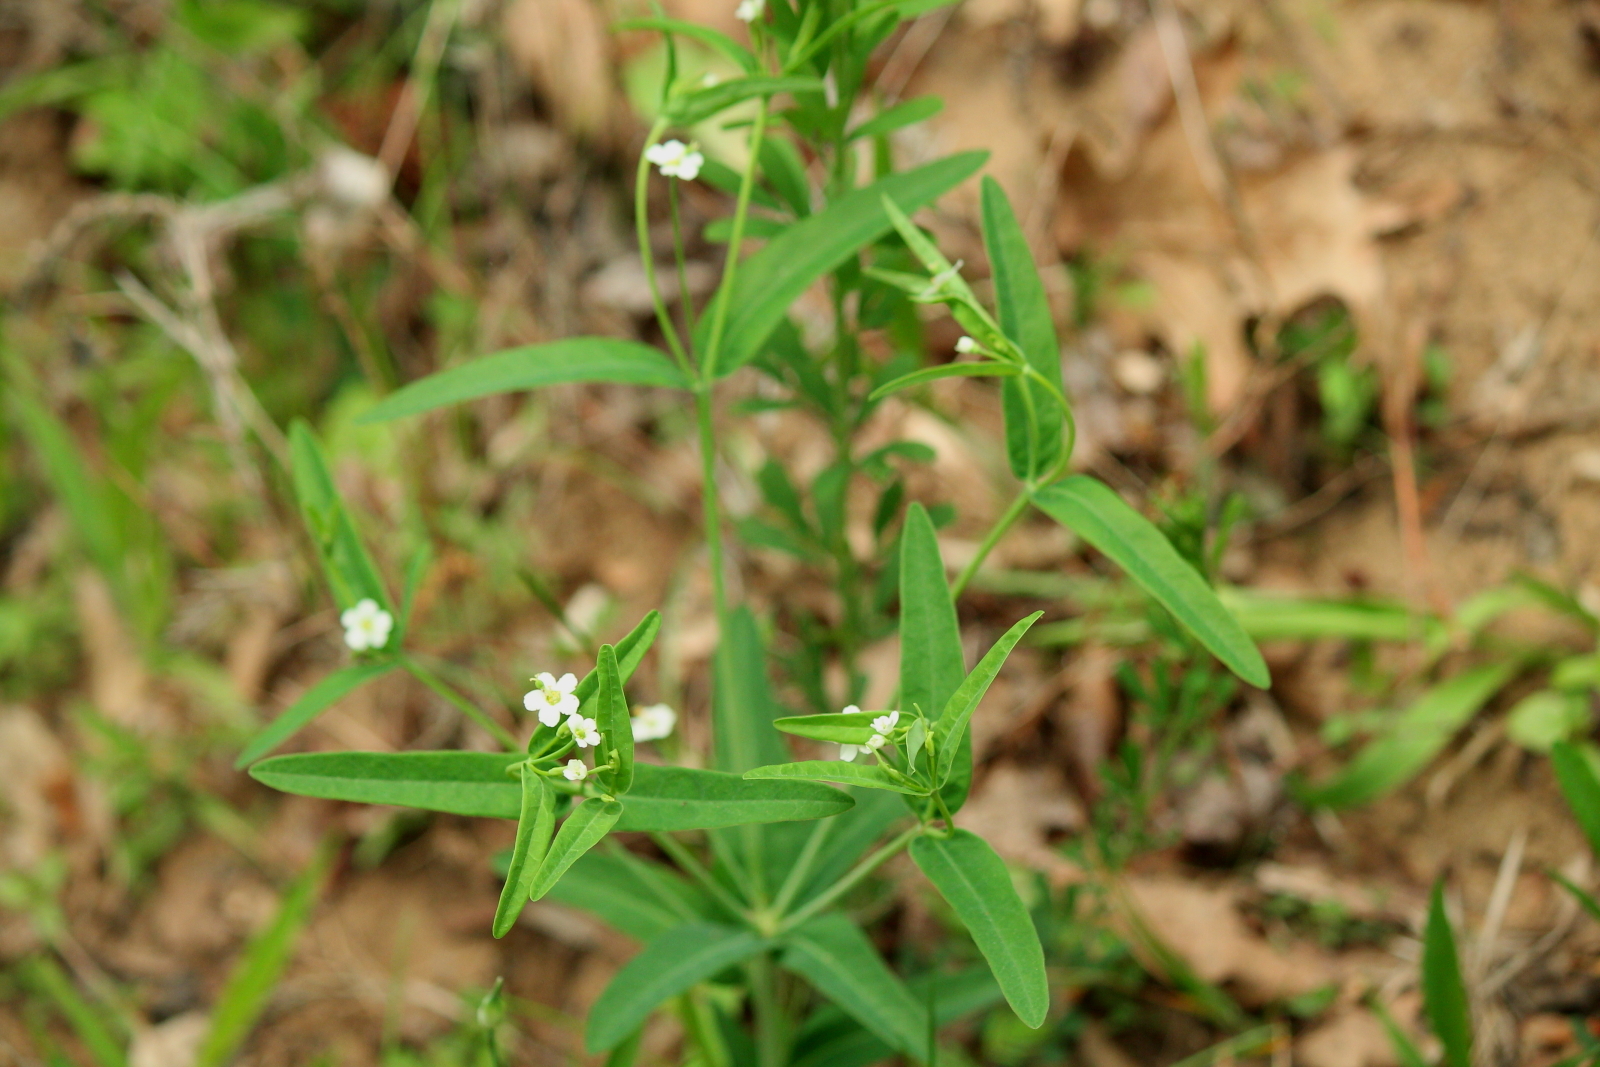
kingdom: Plantae
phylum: Tracheophyta
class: Magnoliopsida
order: Malpighiales
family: Euphorbiaceae
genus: Euphorbia
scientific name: Euphorbia corollata
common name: Flowering spurge
